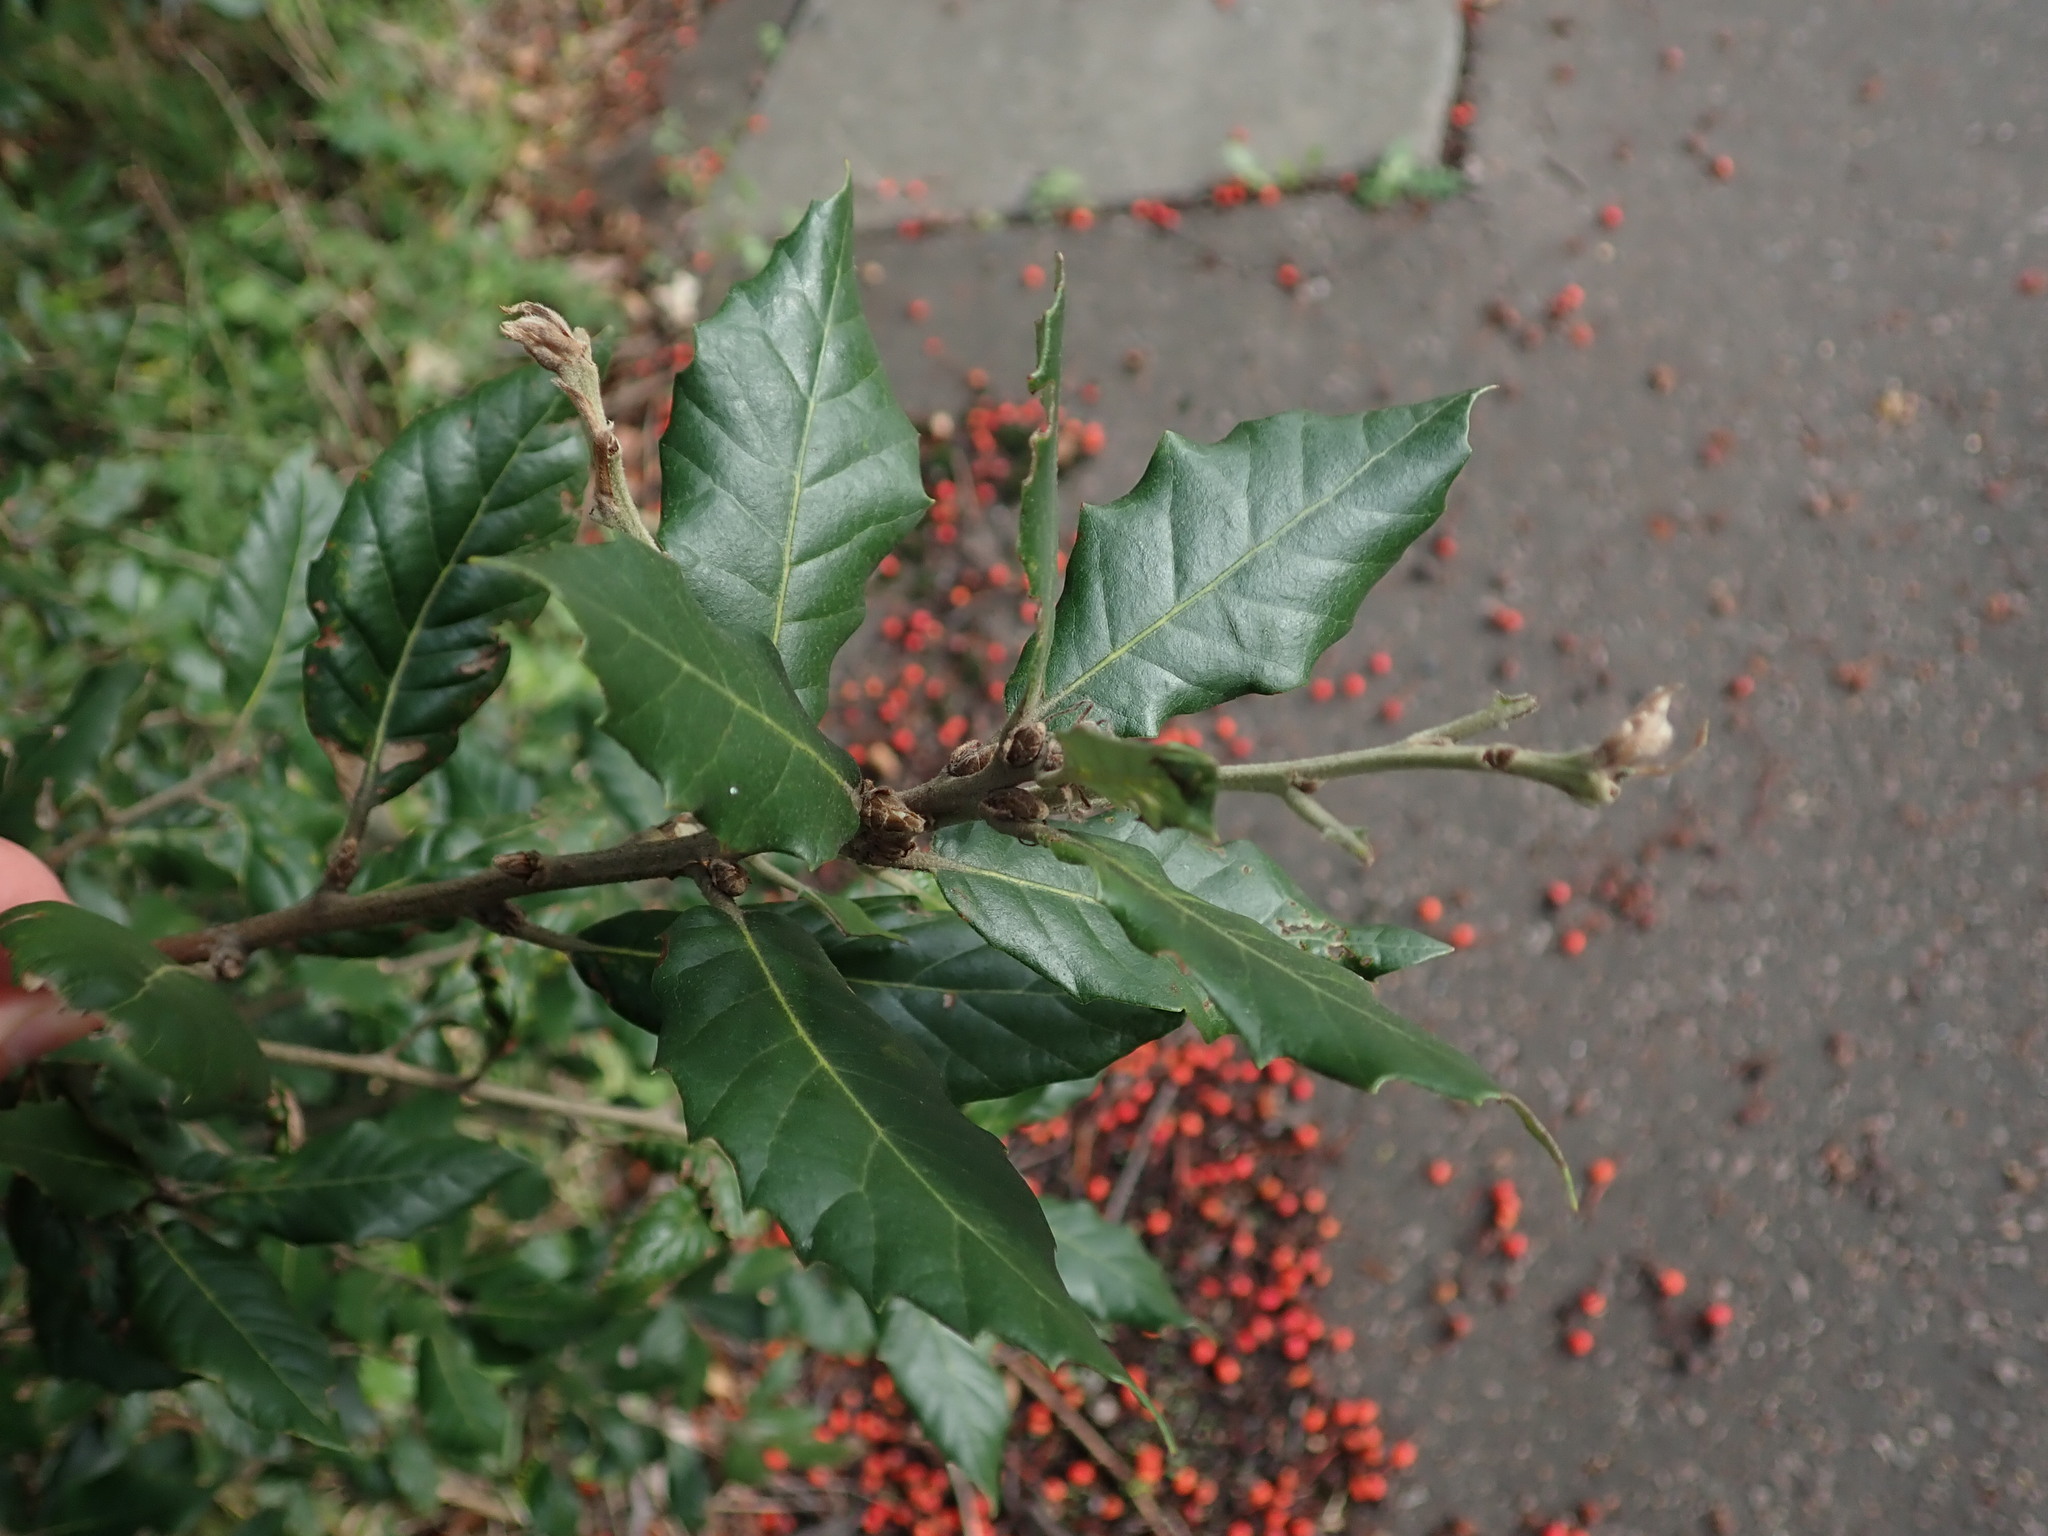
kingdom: Plantae
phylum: Tracheophyta
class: Magnoliopsida
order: Fagales
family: Fagaceae
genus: Quercus
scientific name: Quercus ilex
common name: Evergreen oak
